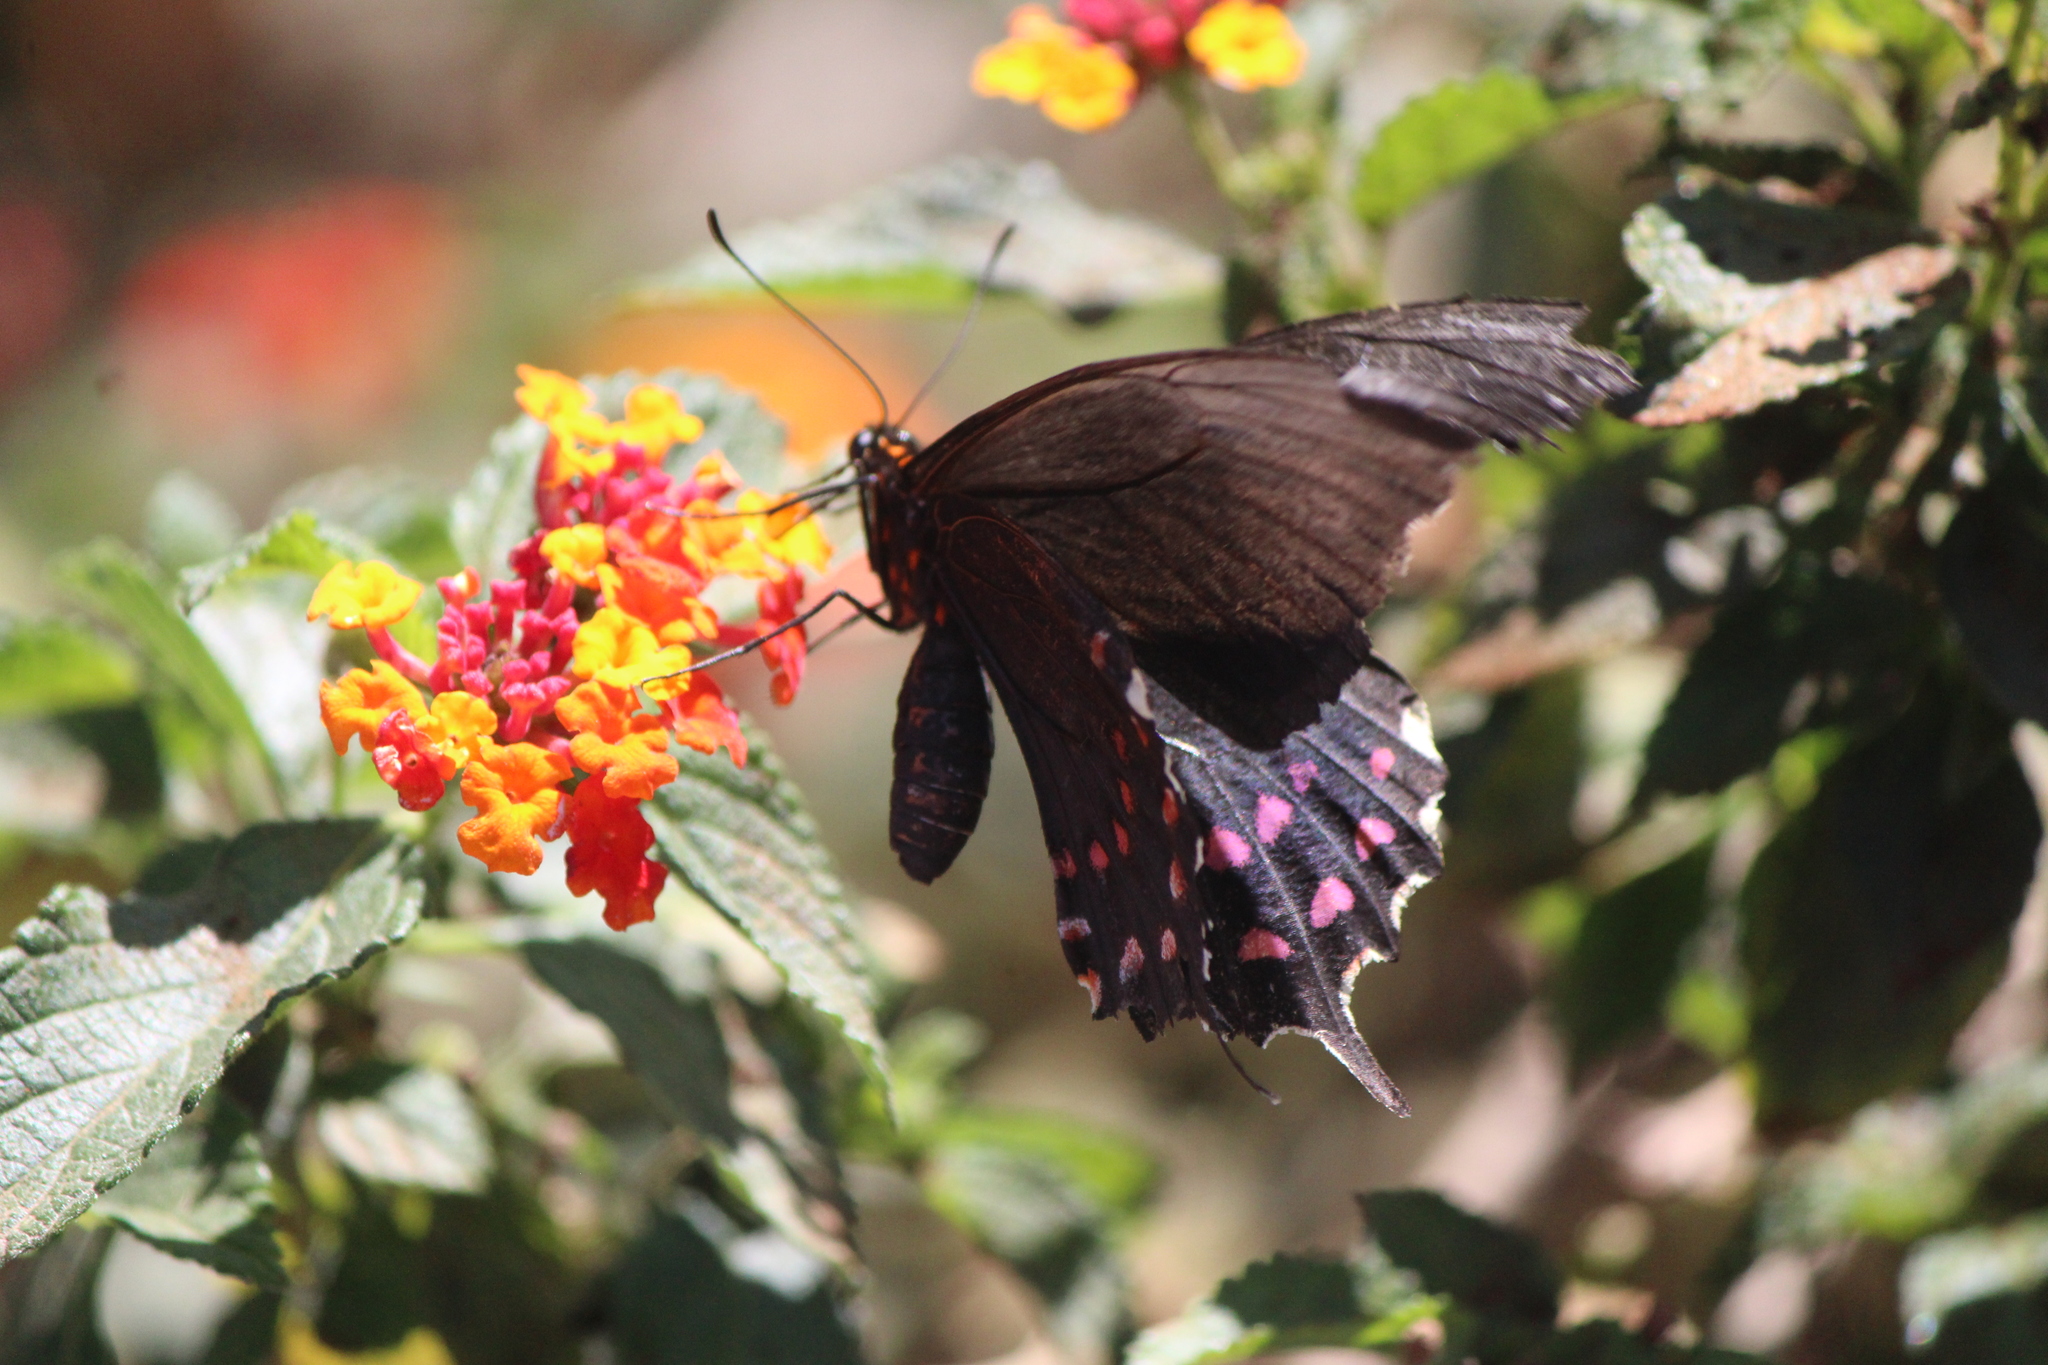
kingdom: Animalia
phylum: Arthropoda
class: Insecta
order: Lepidoptera
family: Papilionidae
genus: Heraclides
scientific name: Heraclides rogeri
